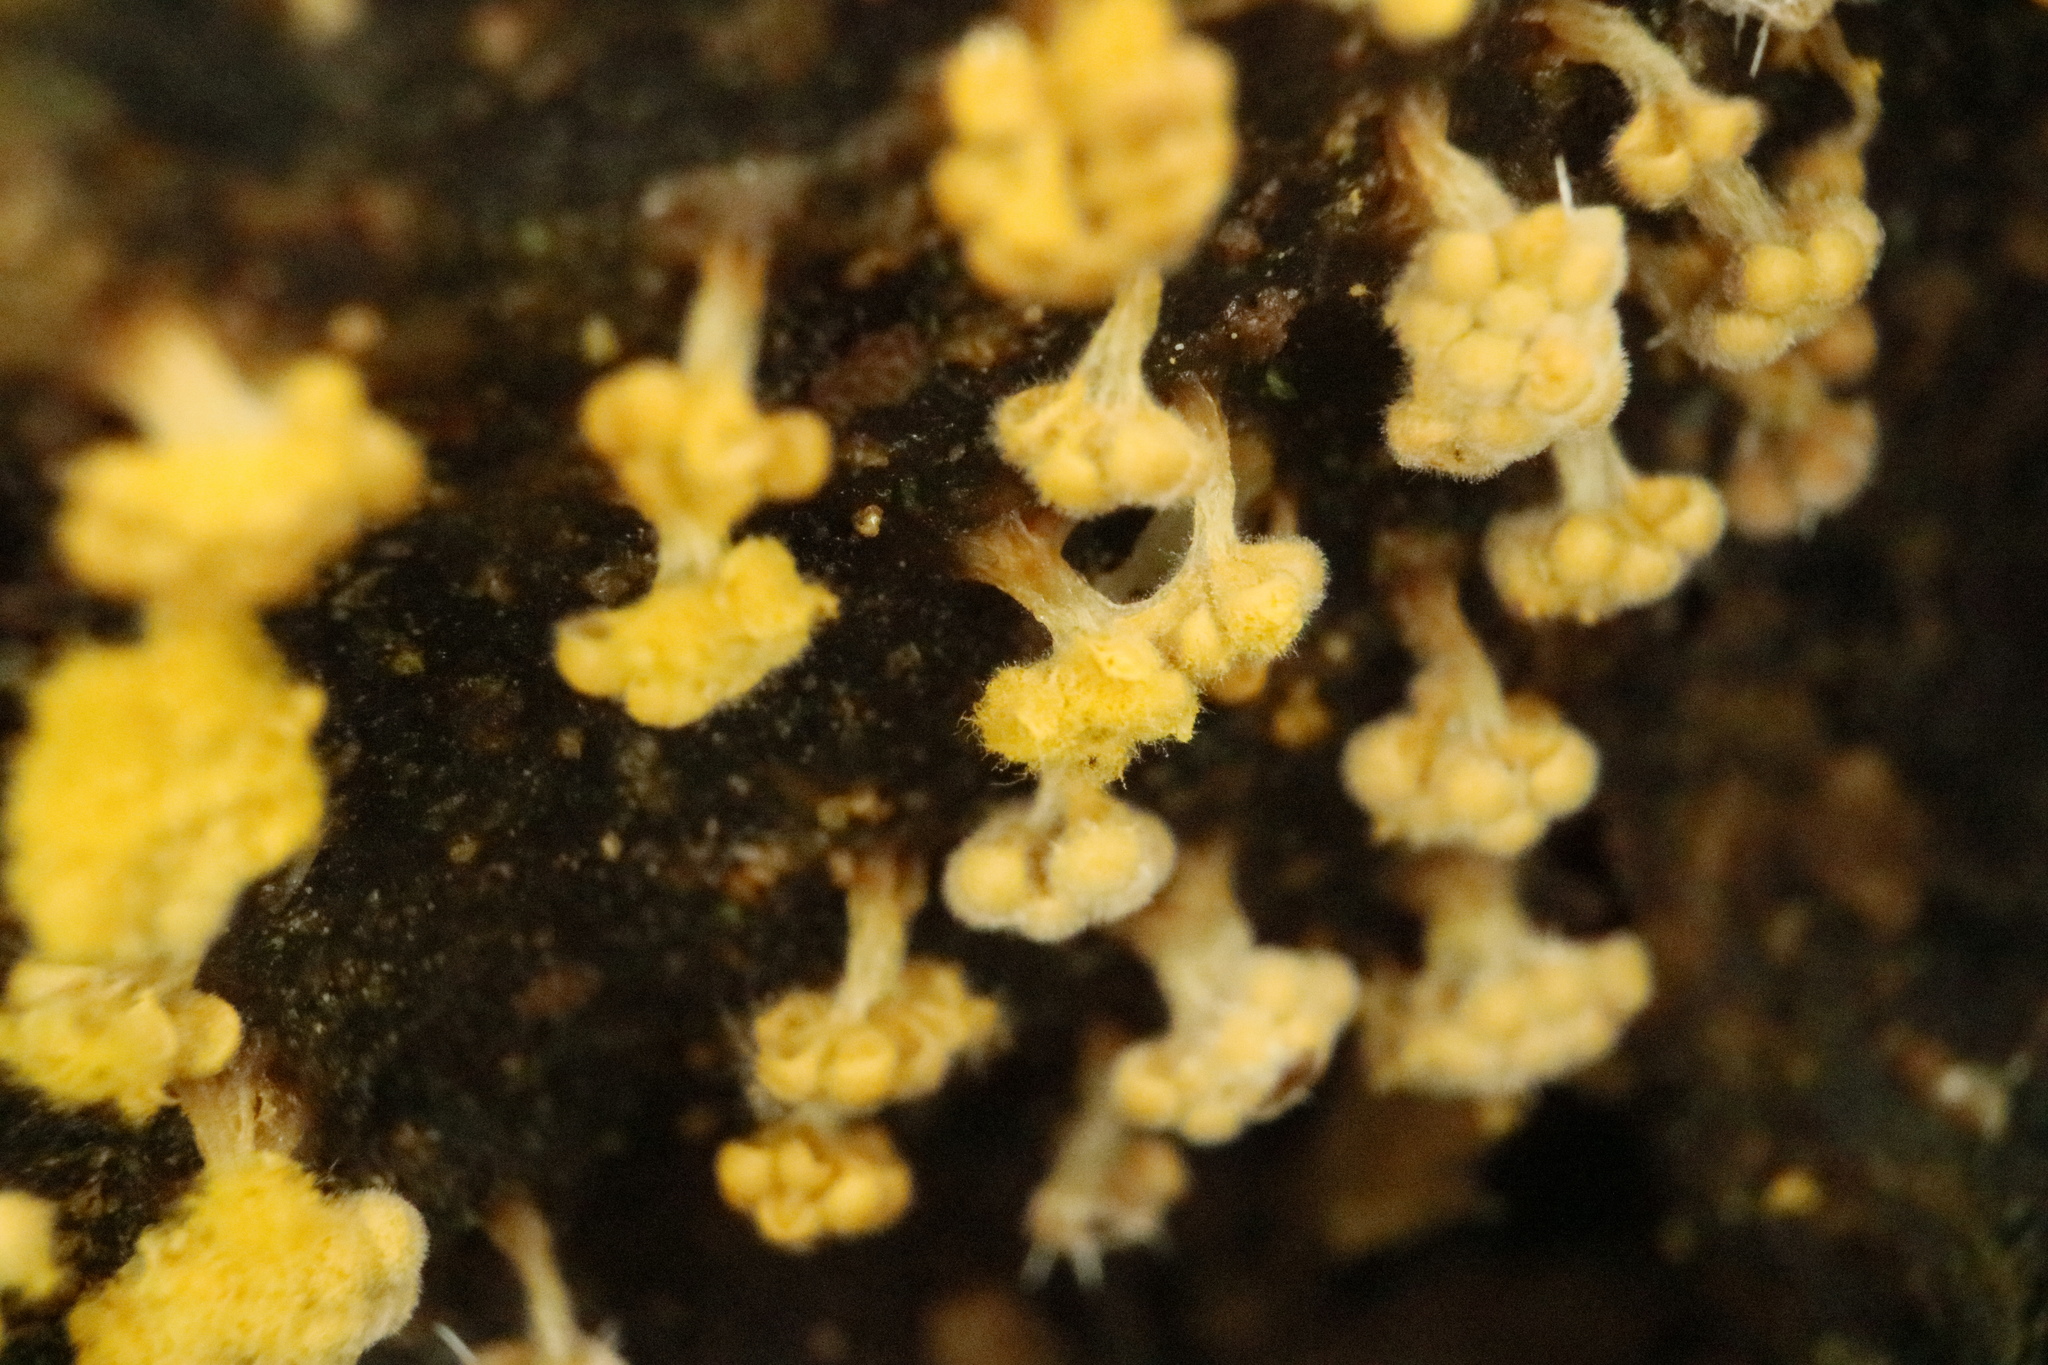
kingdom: Protozoa
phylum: Mycetozoa
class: Myxomycetes
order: Trichiales
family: Trichiaceae
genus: Oligonema
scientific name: Oligonema verrucosum
